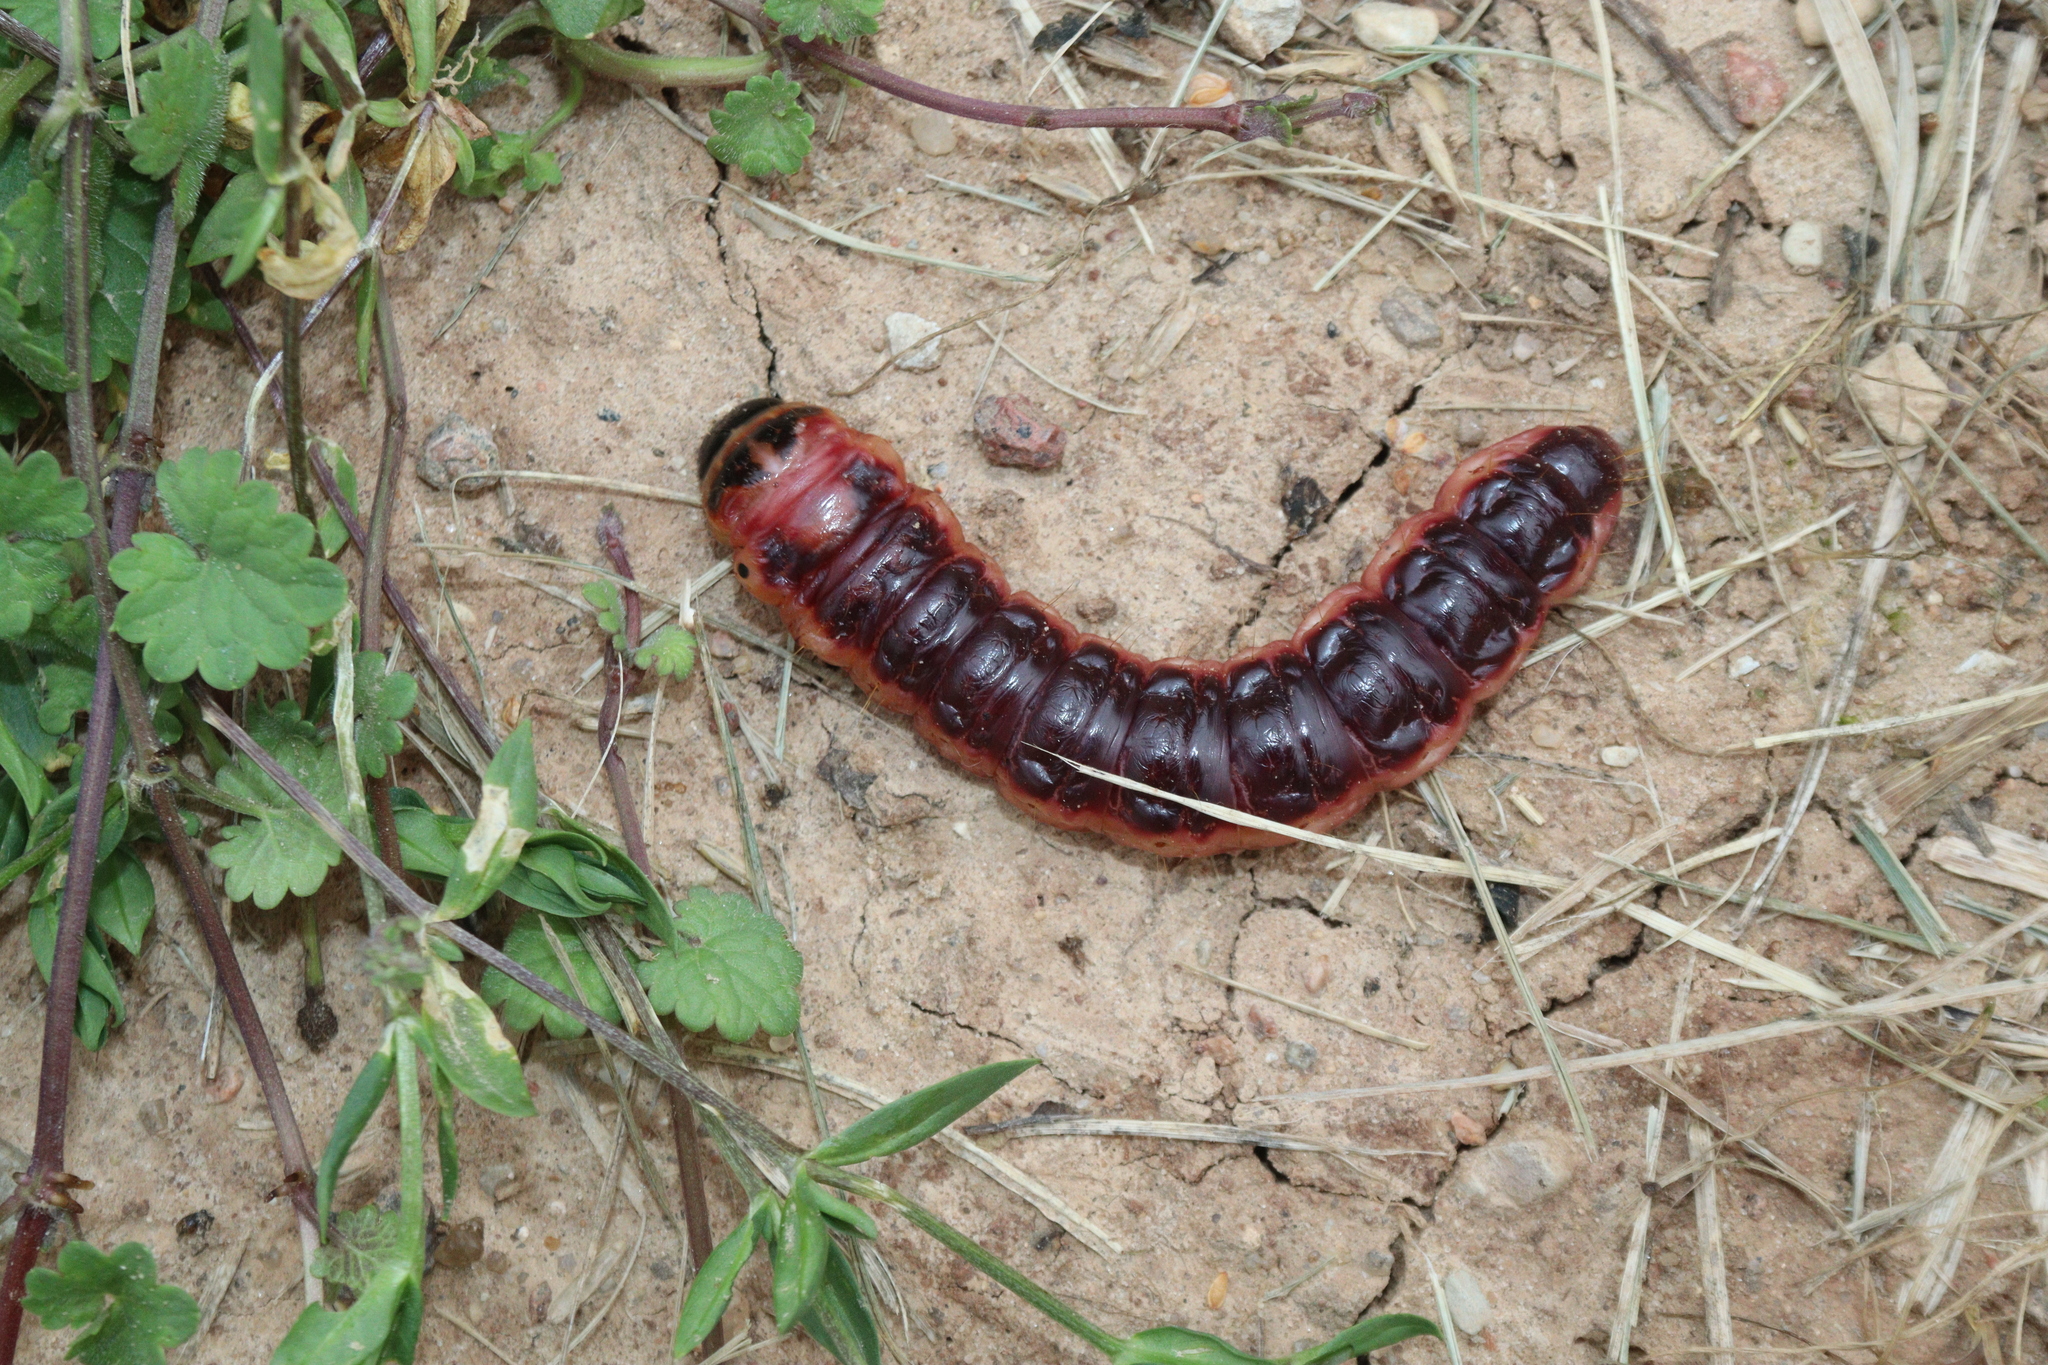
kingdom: Animalia
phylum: Arthropoda
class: Insecta
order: Lepidoptera
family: Cossidae
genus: Cossus
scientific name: Cossus cossus
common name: Goat moth
